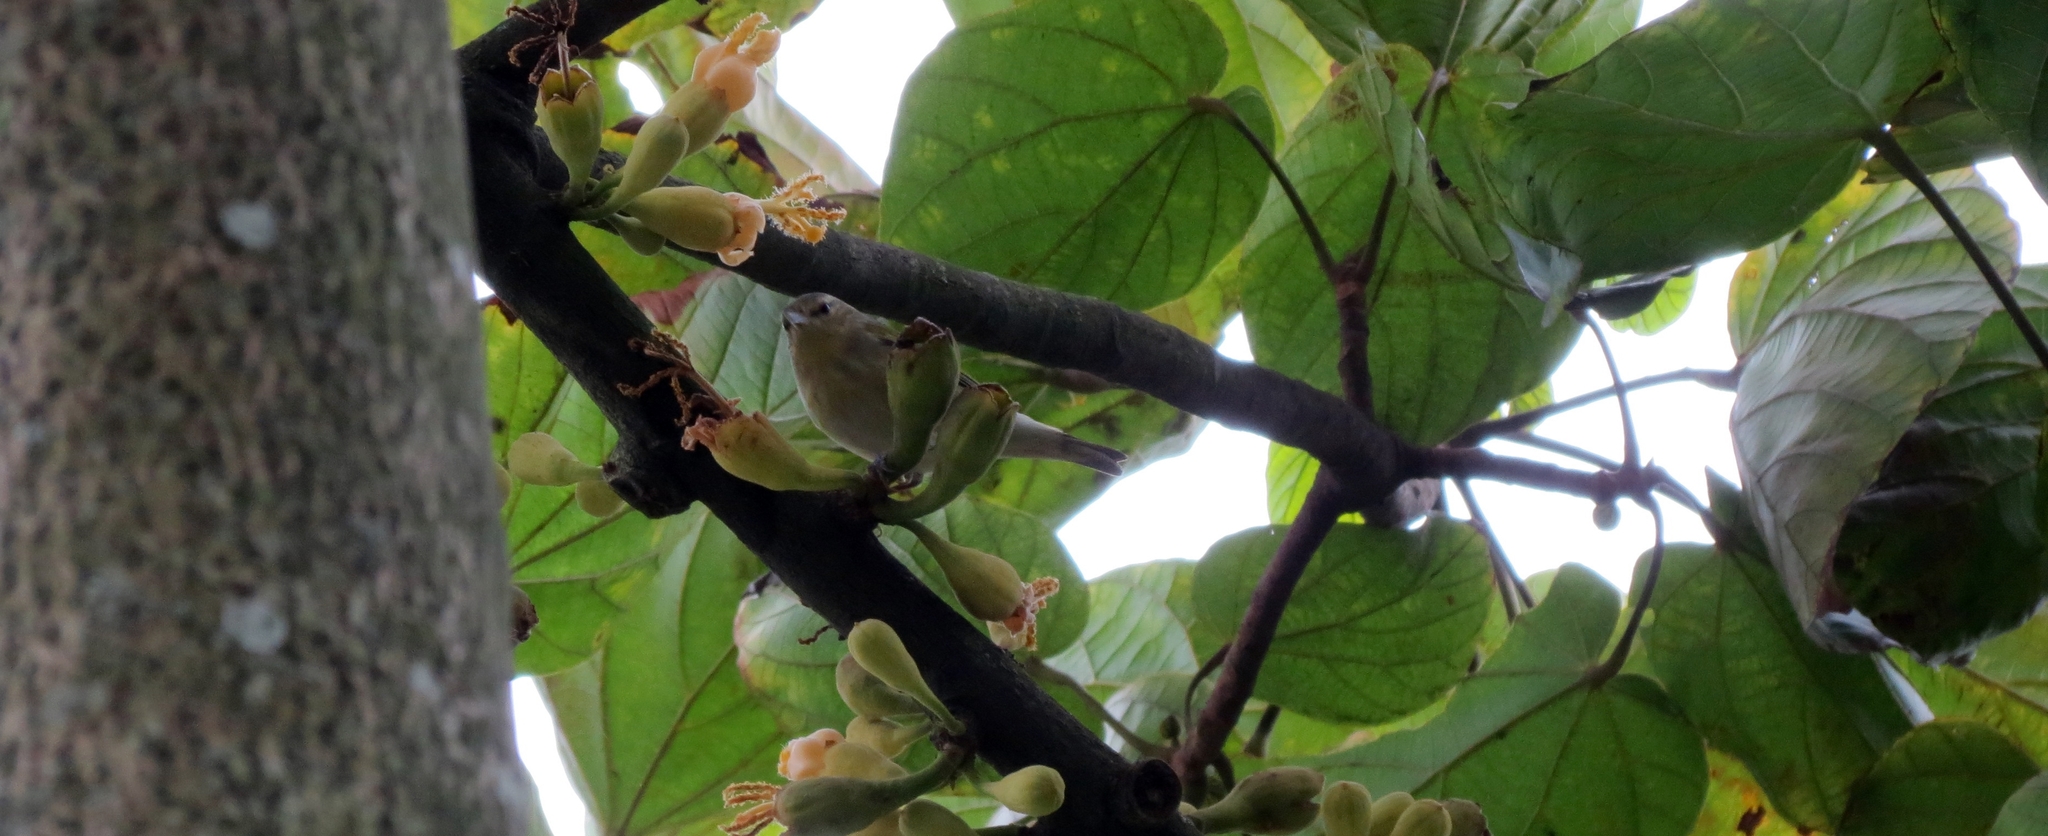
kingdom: Animalia
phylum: Chordata
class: Aves
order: Passeriformes
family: Parulidae
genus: Leiothlypis
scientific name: Leiothlypis peregrina
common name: Tennessee warbler
